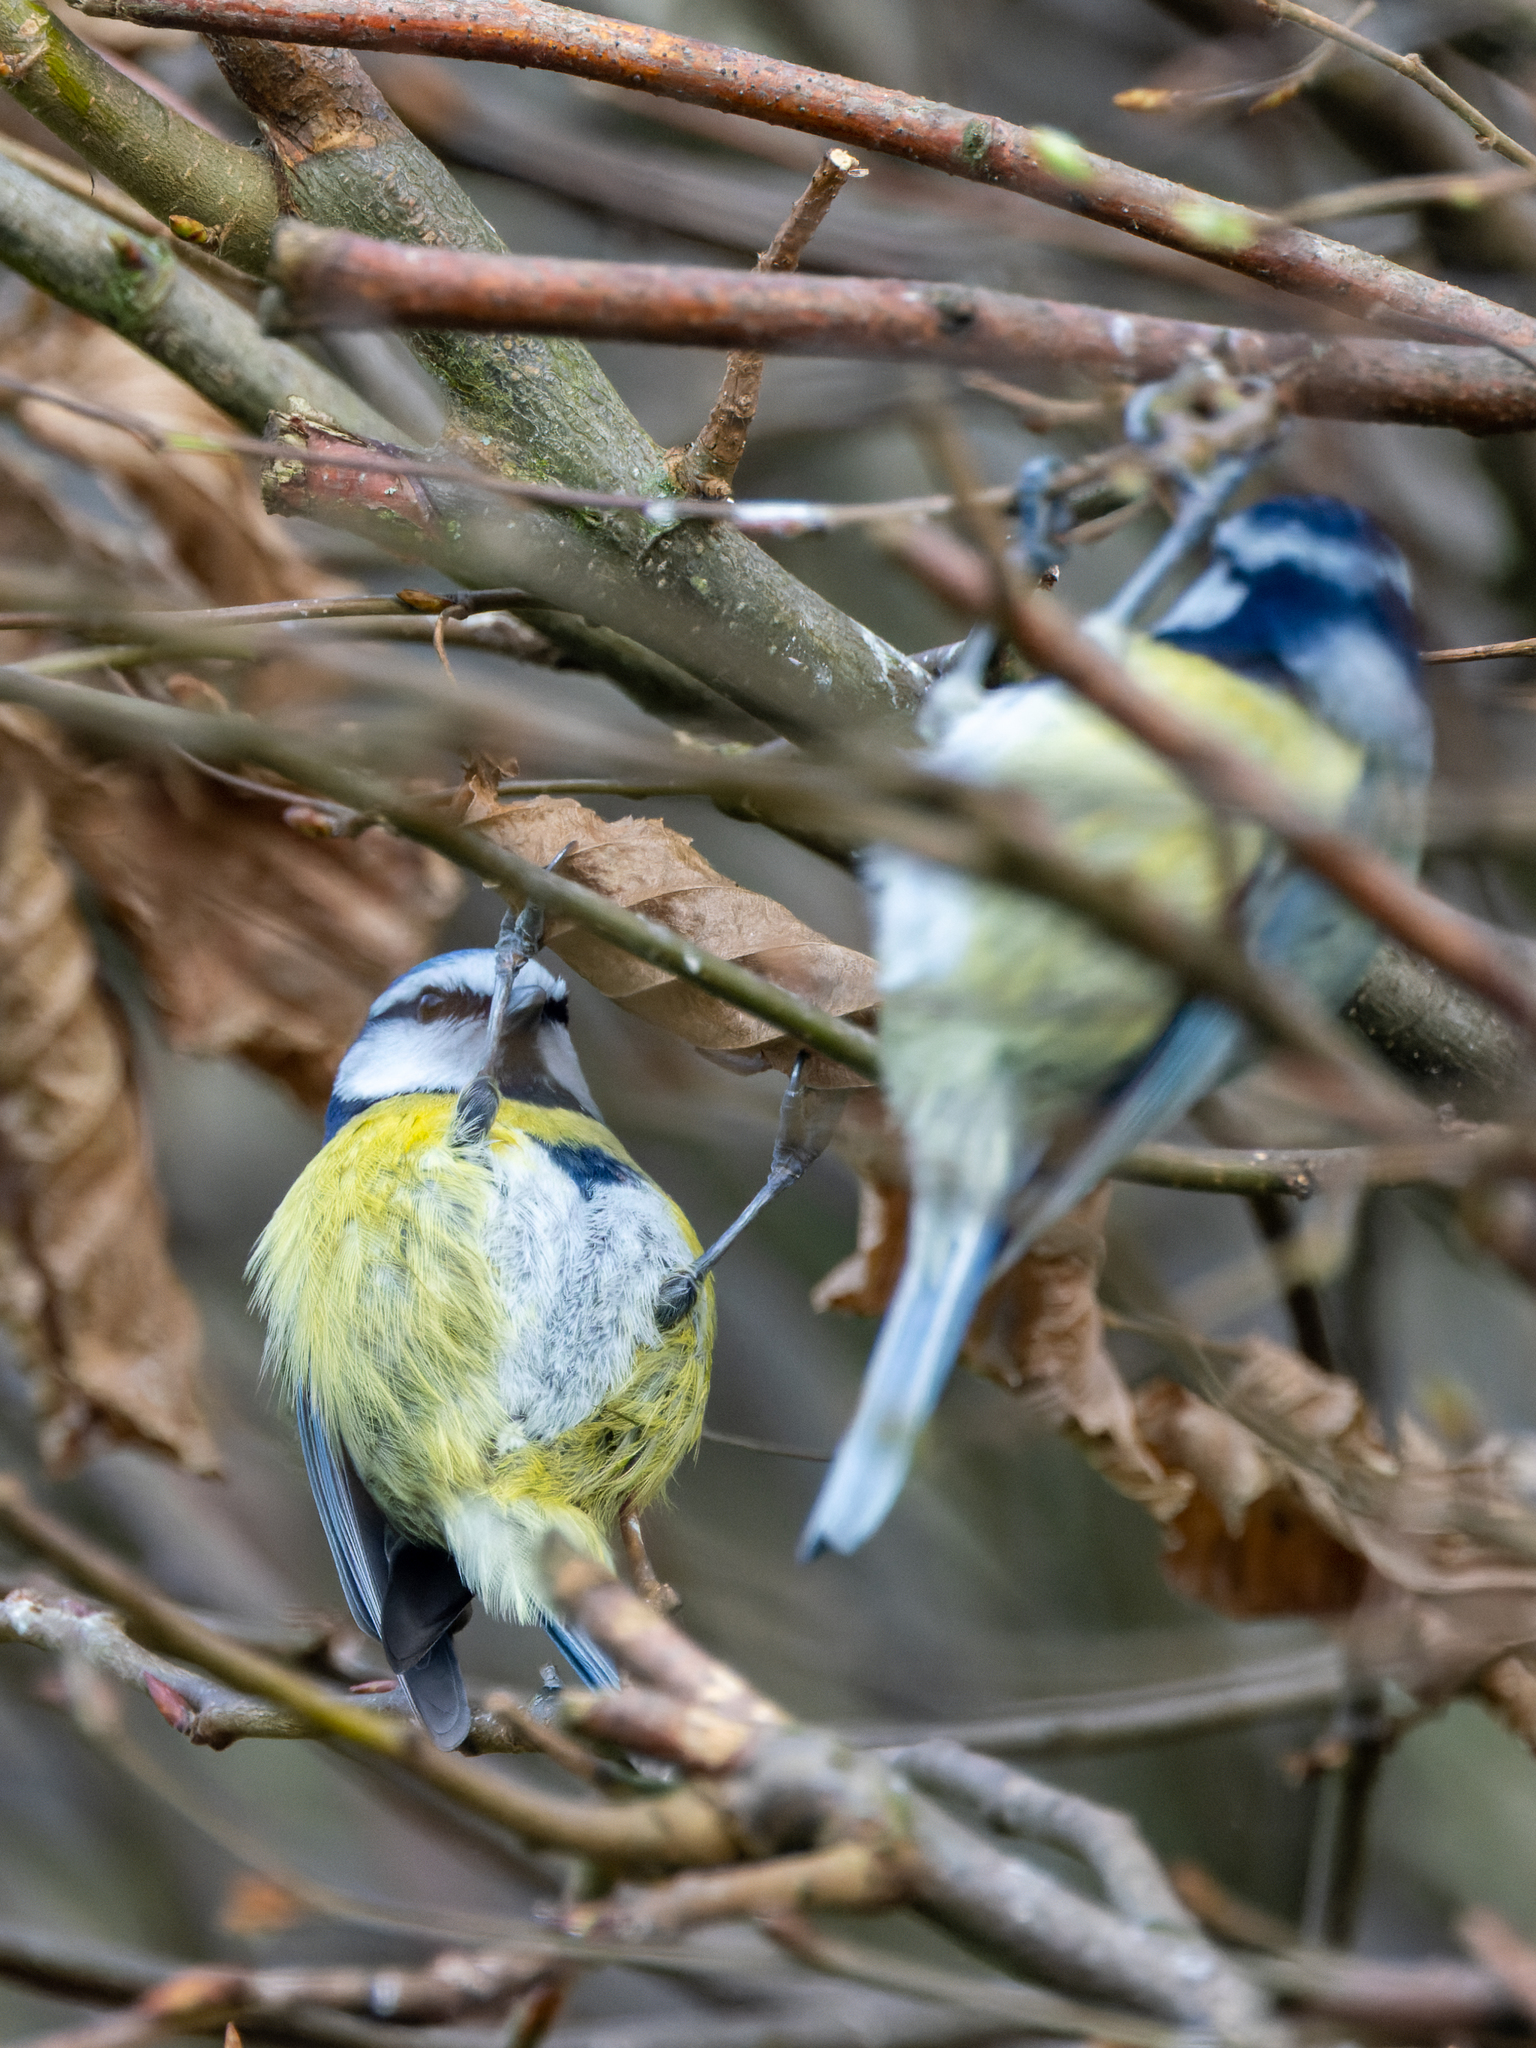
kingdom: Animalia
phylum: Chordata
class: Aves
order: Passeriformes
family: Paridae
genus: Cyanistes
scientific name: Cyanistes caeruleus
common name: Eurasian blue tit
